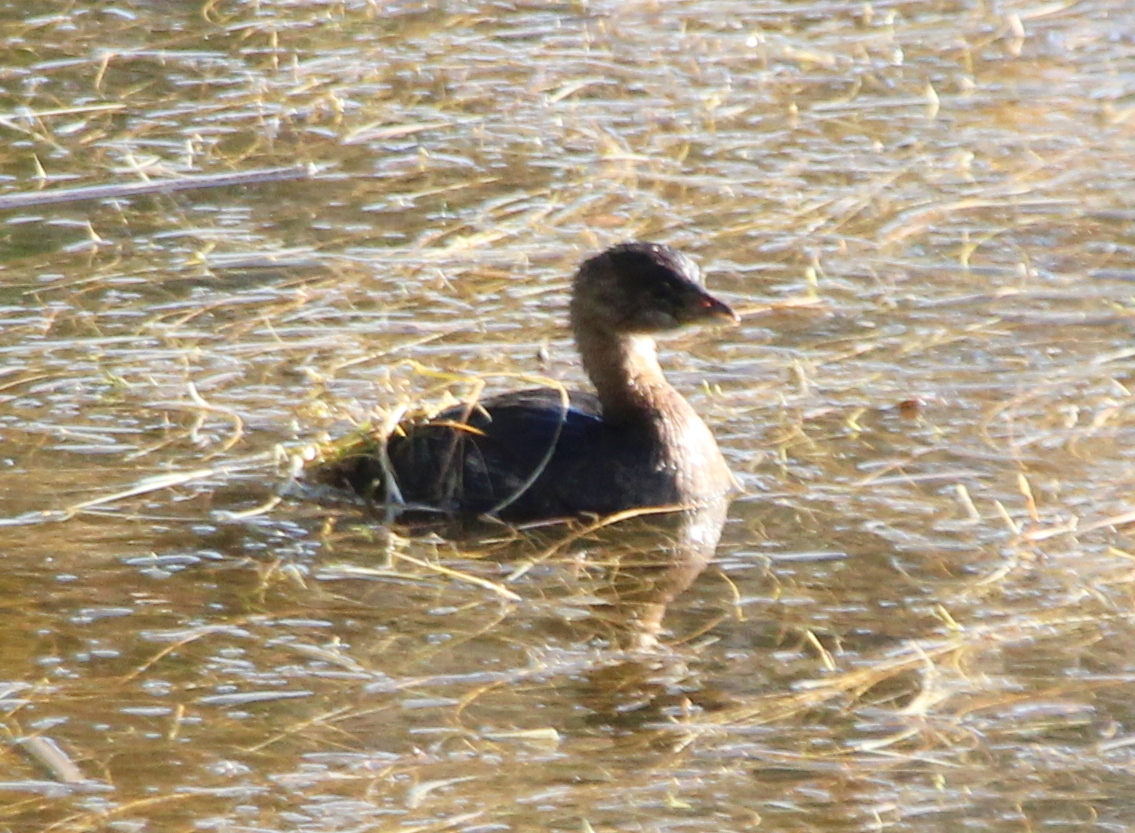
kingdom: Animalia
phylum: Chordata
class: Aves
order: Podicipediformes
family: Podicipedidae
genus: Podilymbus
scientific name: Podilymbus podiceps
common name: Pied-billed grebe
